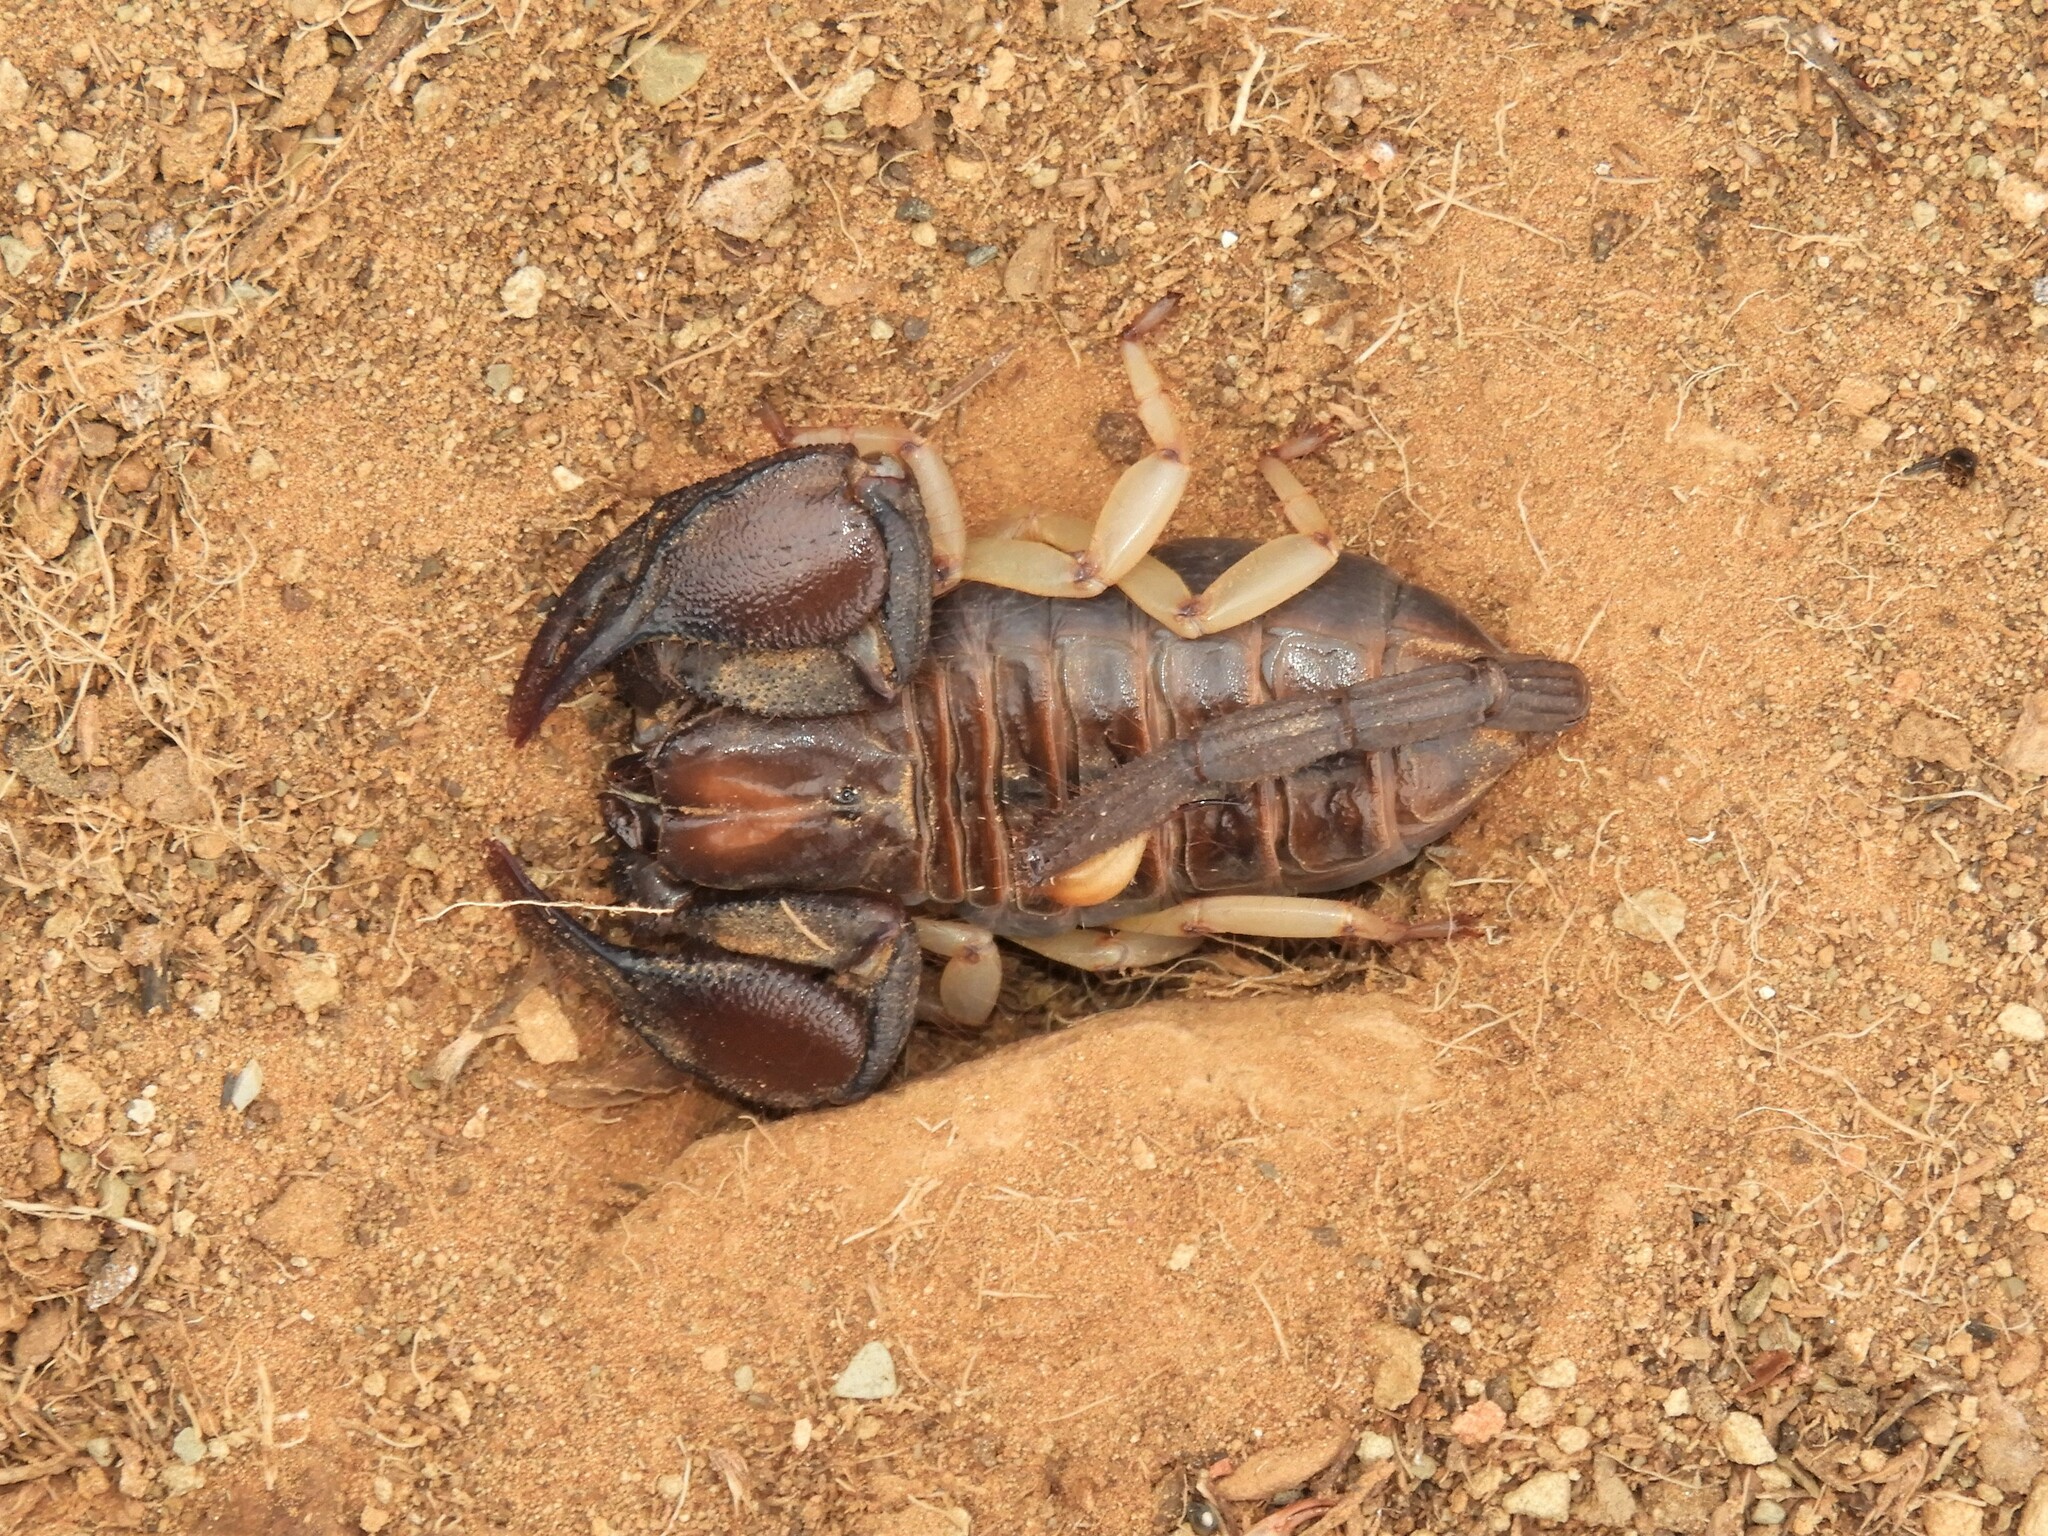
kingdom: Animalia
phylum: Arthropoda
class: Arachnida
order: Scorpiones
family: Scorpionidae
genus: Opistophthalmus
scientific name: Opistophthalmus austerus
